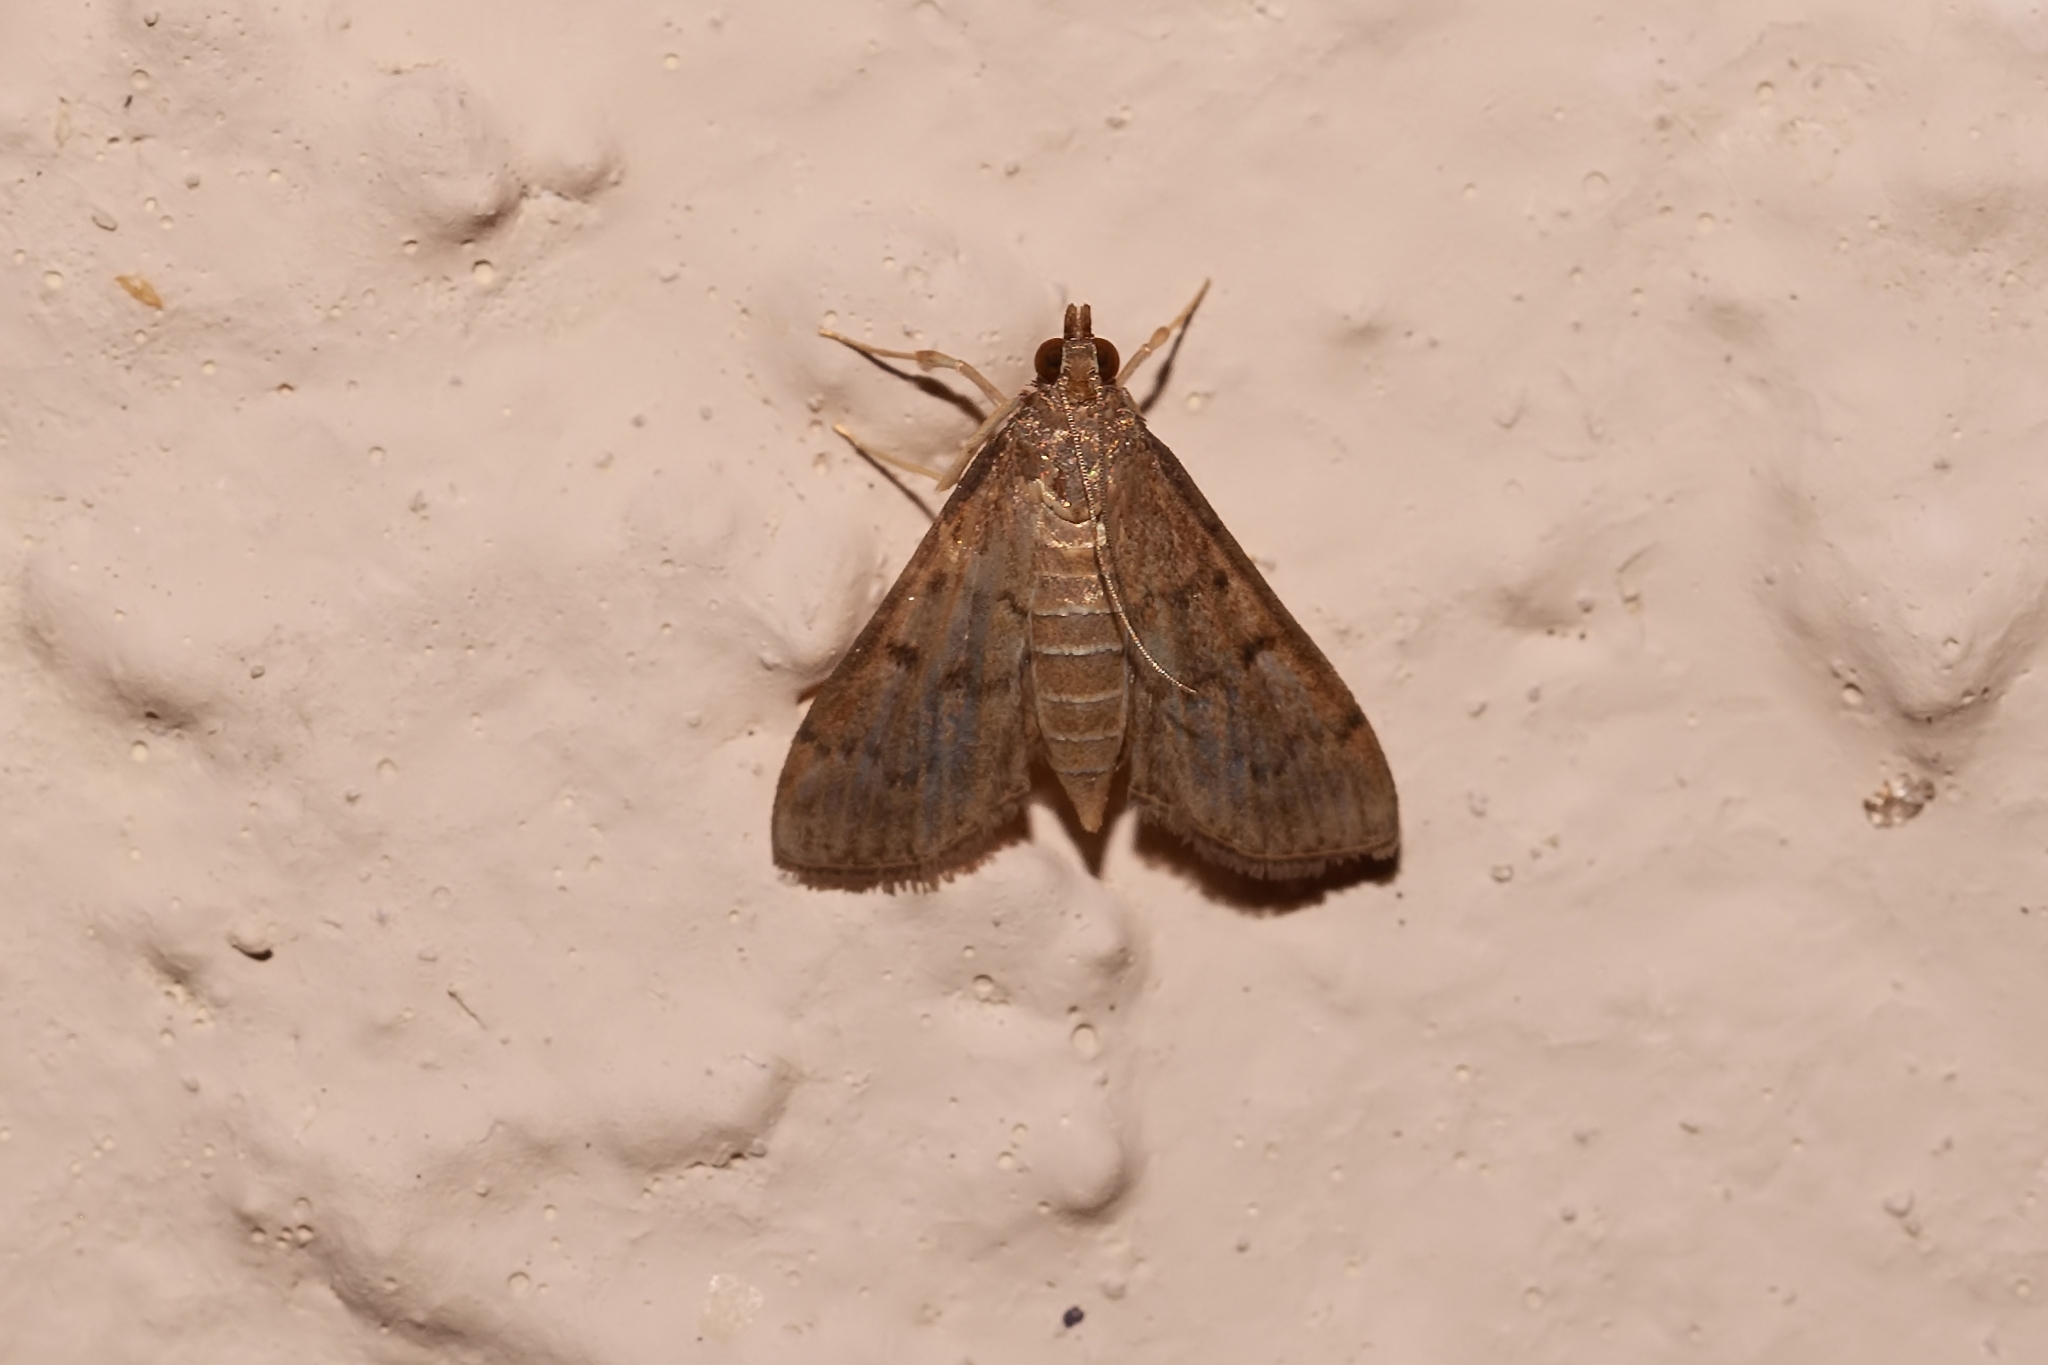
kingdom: Animalia
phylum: Arthropoda
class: Insecta
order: Lepidoptera
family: Crambidae
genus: Herpetogramma
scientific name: Herpetogramma phaeopteralis
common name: Dusky herpetogramma moth
